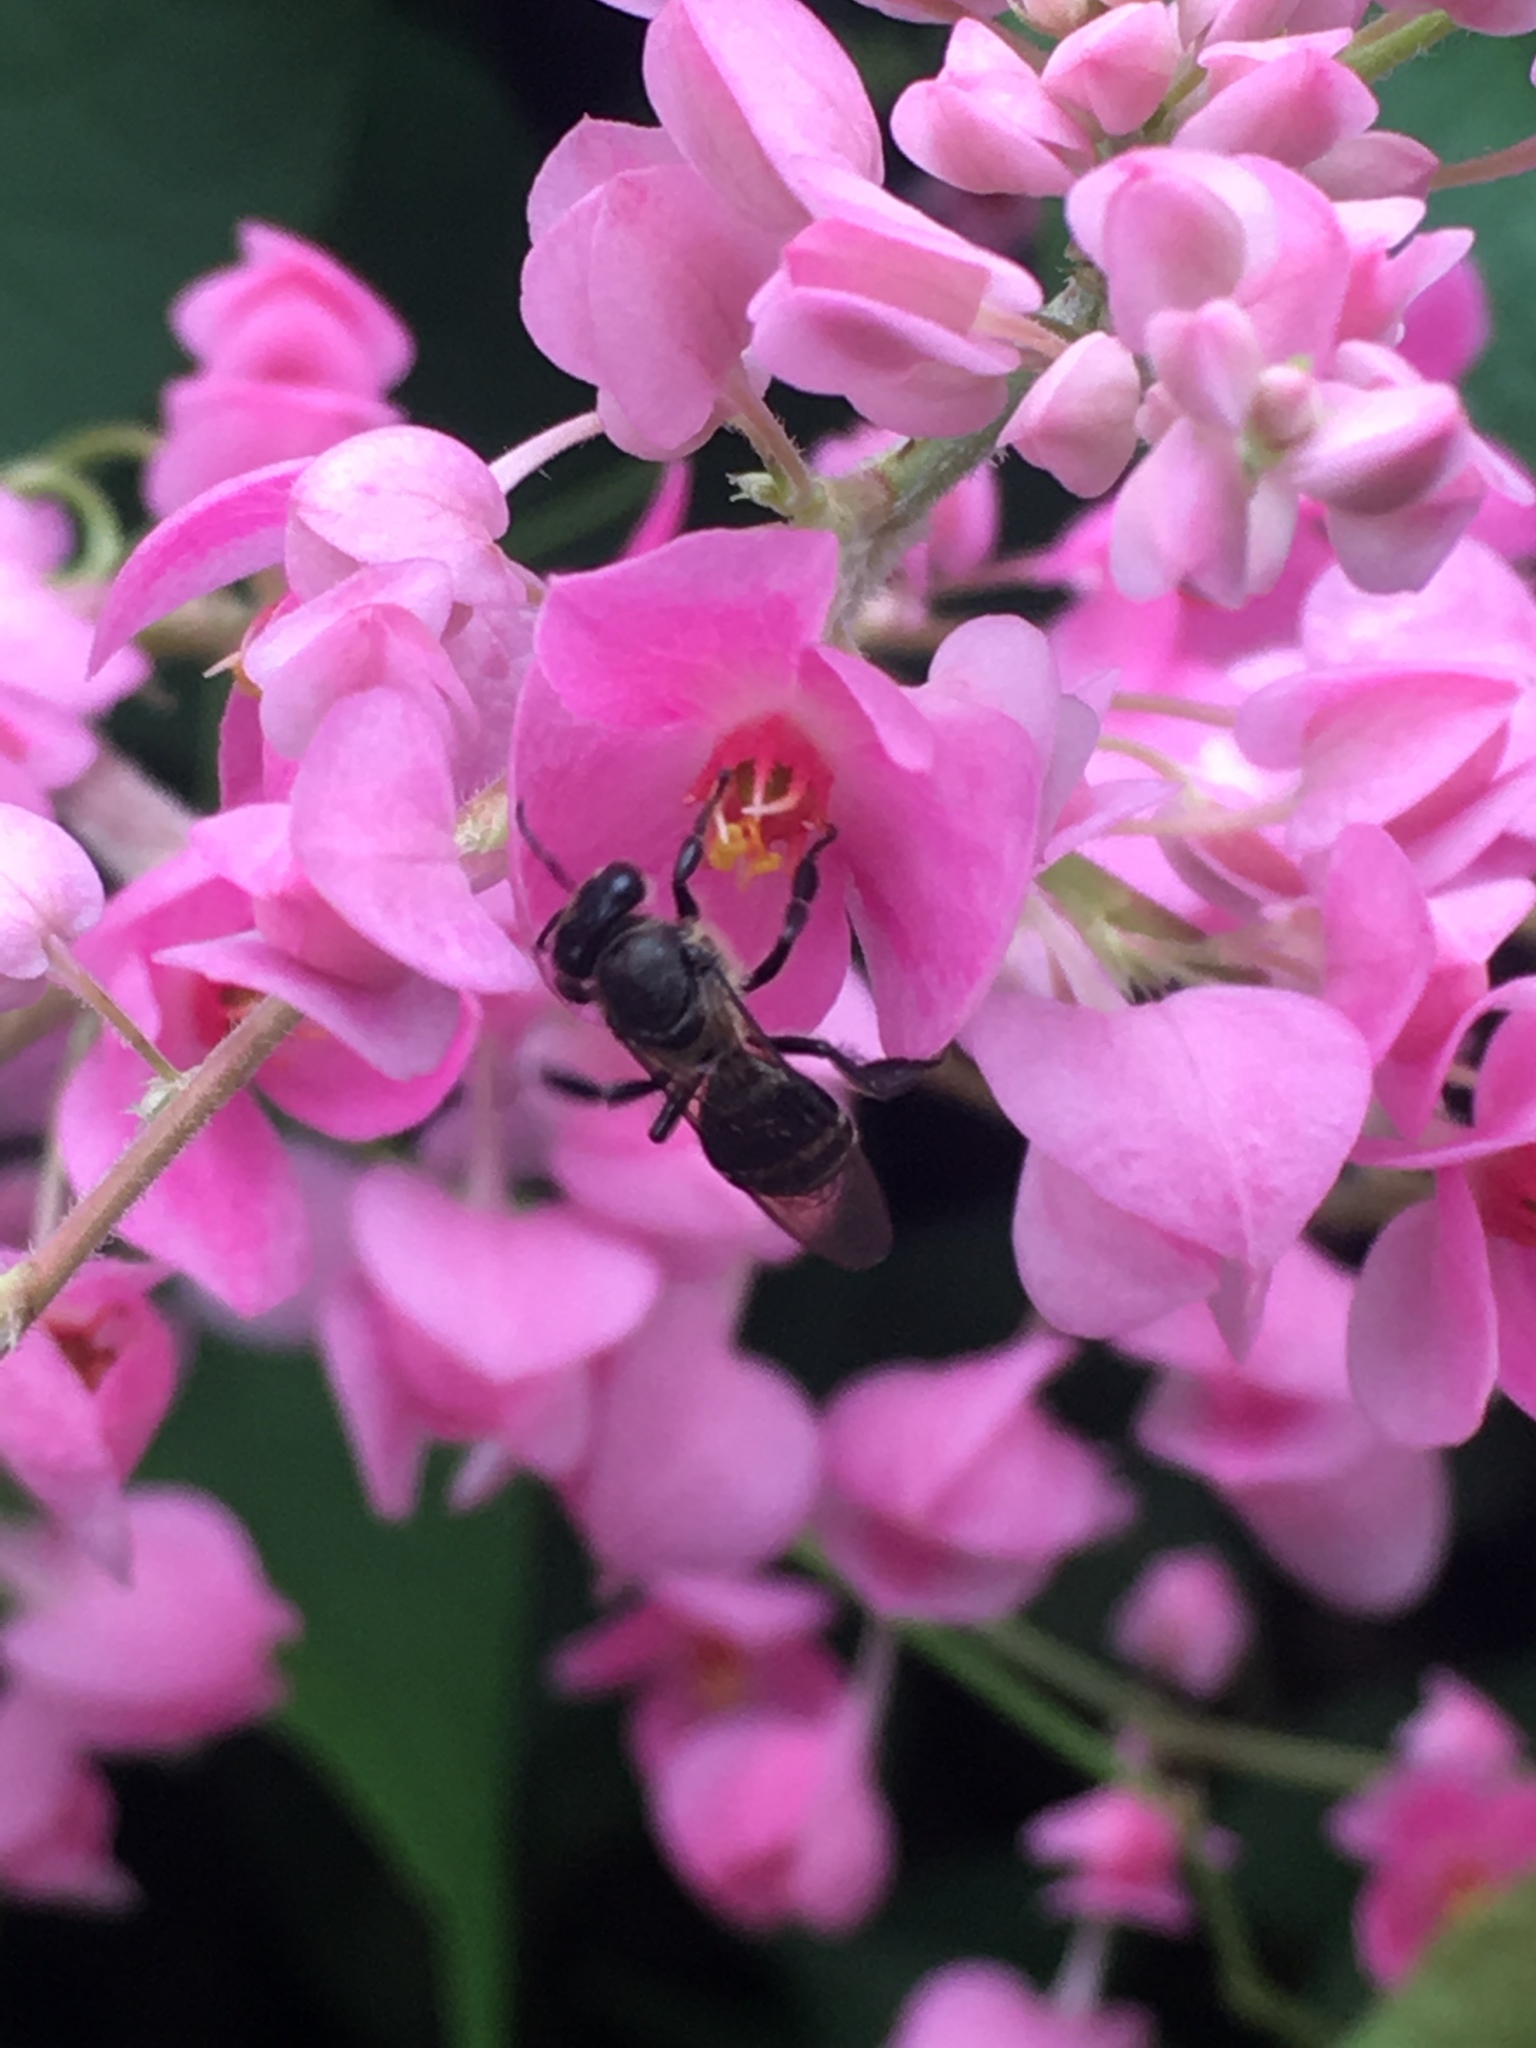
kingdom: Animalia
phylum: Arthropoda
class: Insecta
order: Hymenoptera
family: Apidae
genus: Apis
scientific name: Apis andreniformis
